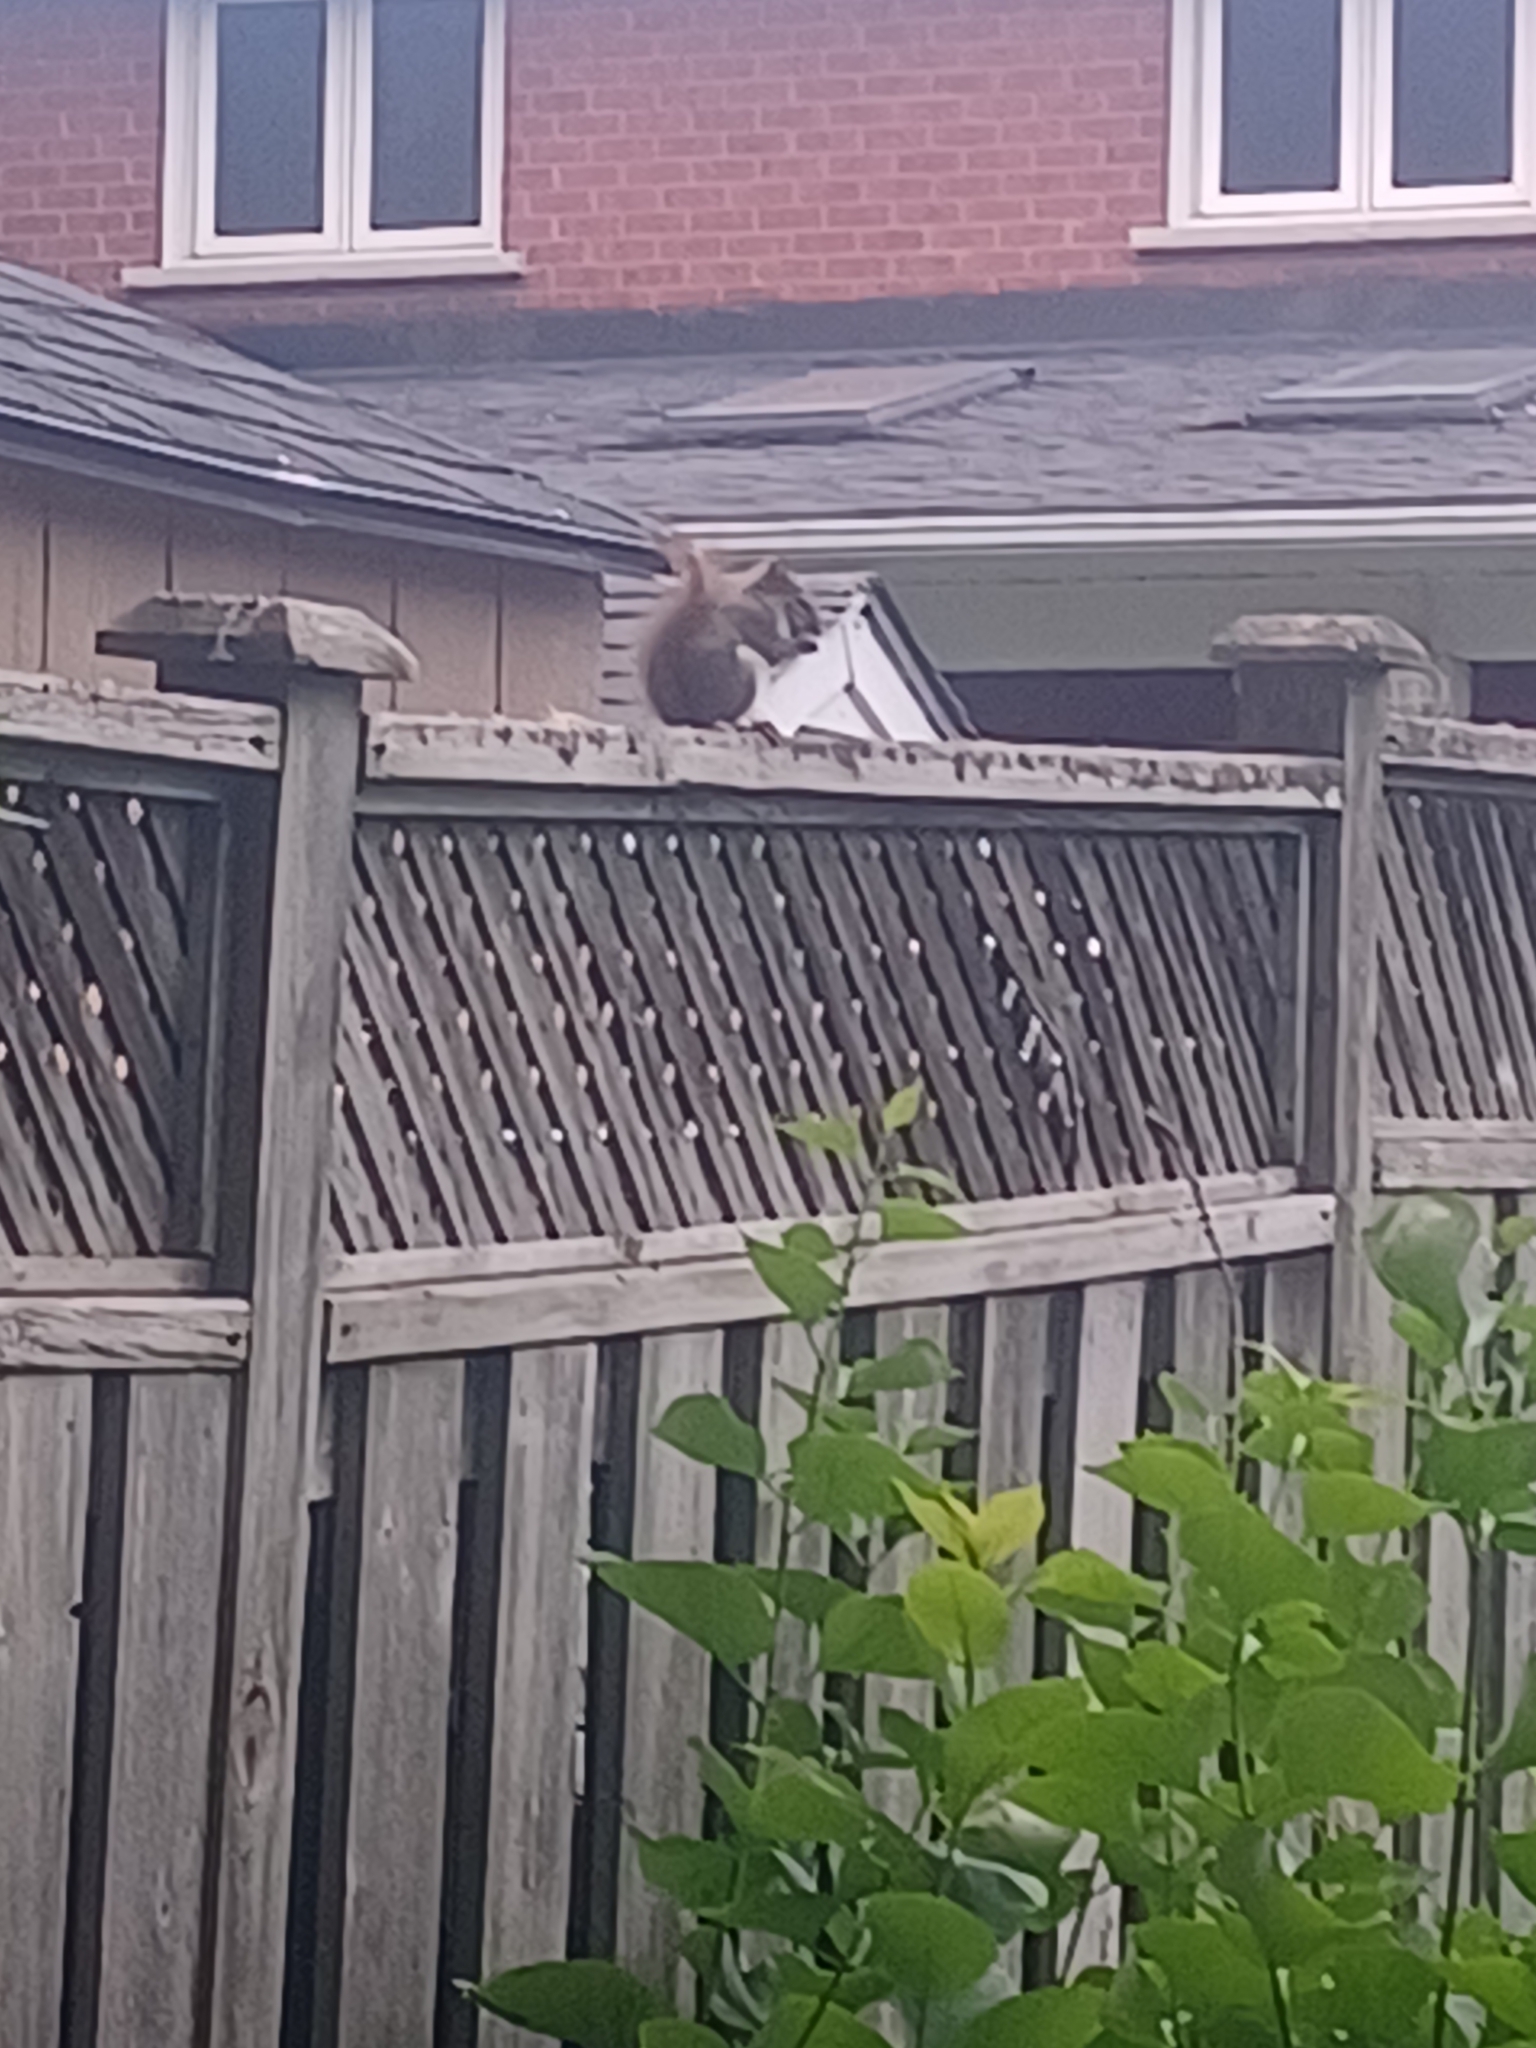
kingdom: Animalia
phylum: Chordata
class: Mammalia
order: Rodentia
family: Sciuridae
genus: Tamiasciurus
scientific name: Tamiasciurus hudsonicus
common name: Red squirrel
